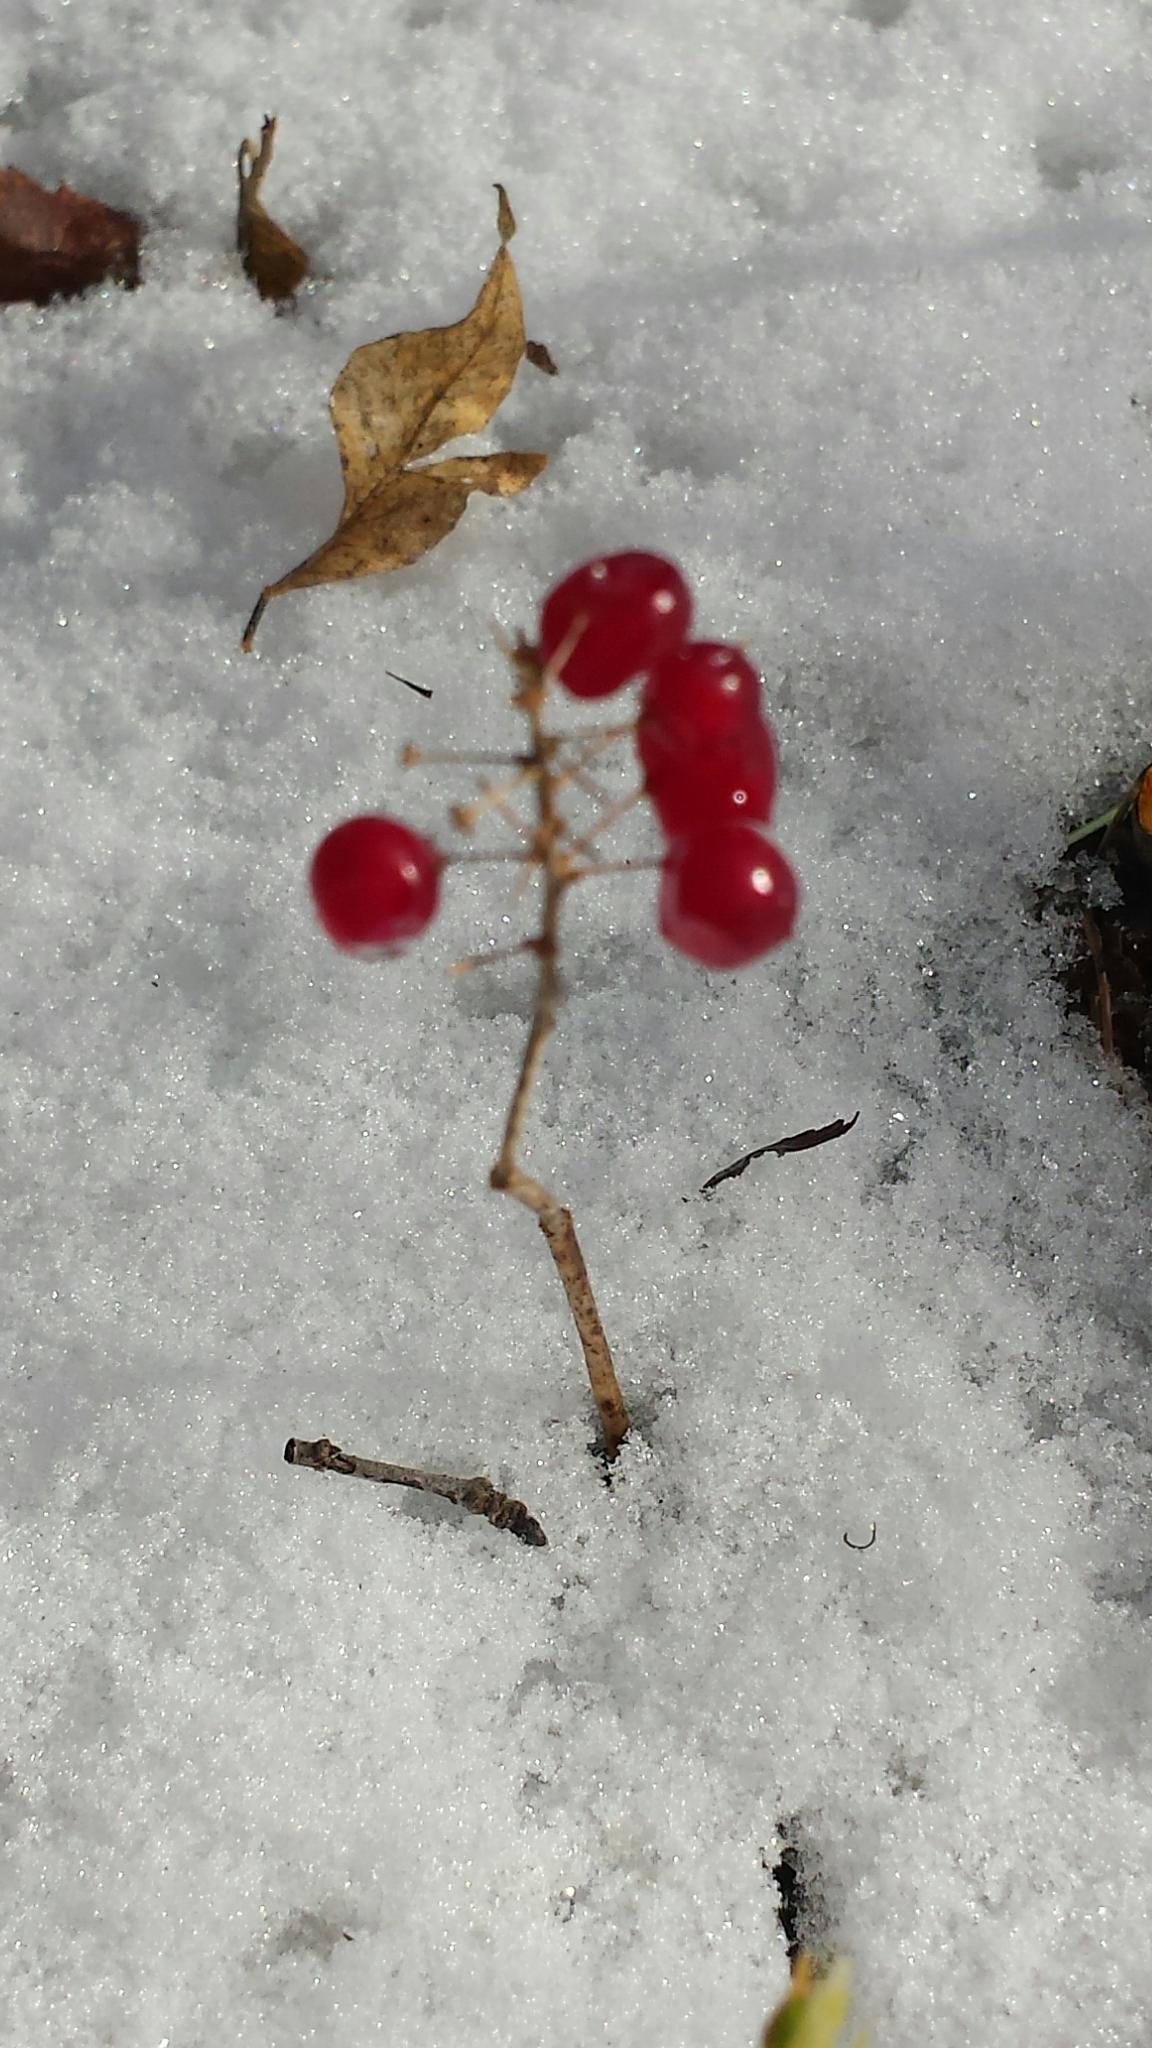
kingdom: Plantae
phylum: Tracheophyta
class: Liliopsida
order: Asparagales
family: Asparagaceae
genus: Maianthemum
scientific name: Maianthemum canadense
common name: False lily-of-the-valley
